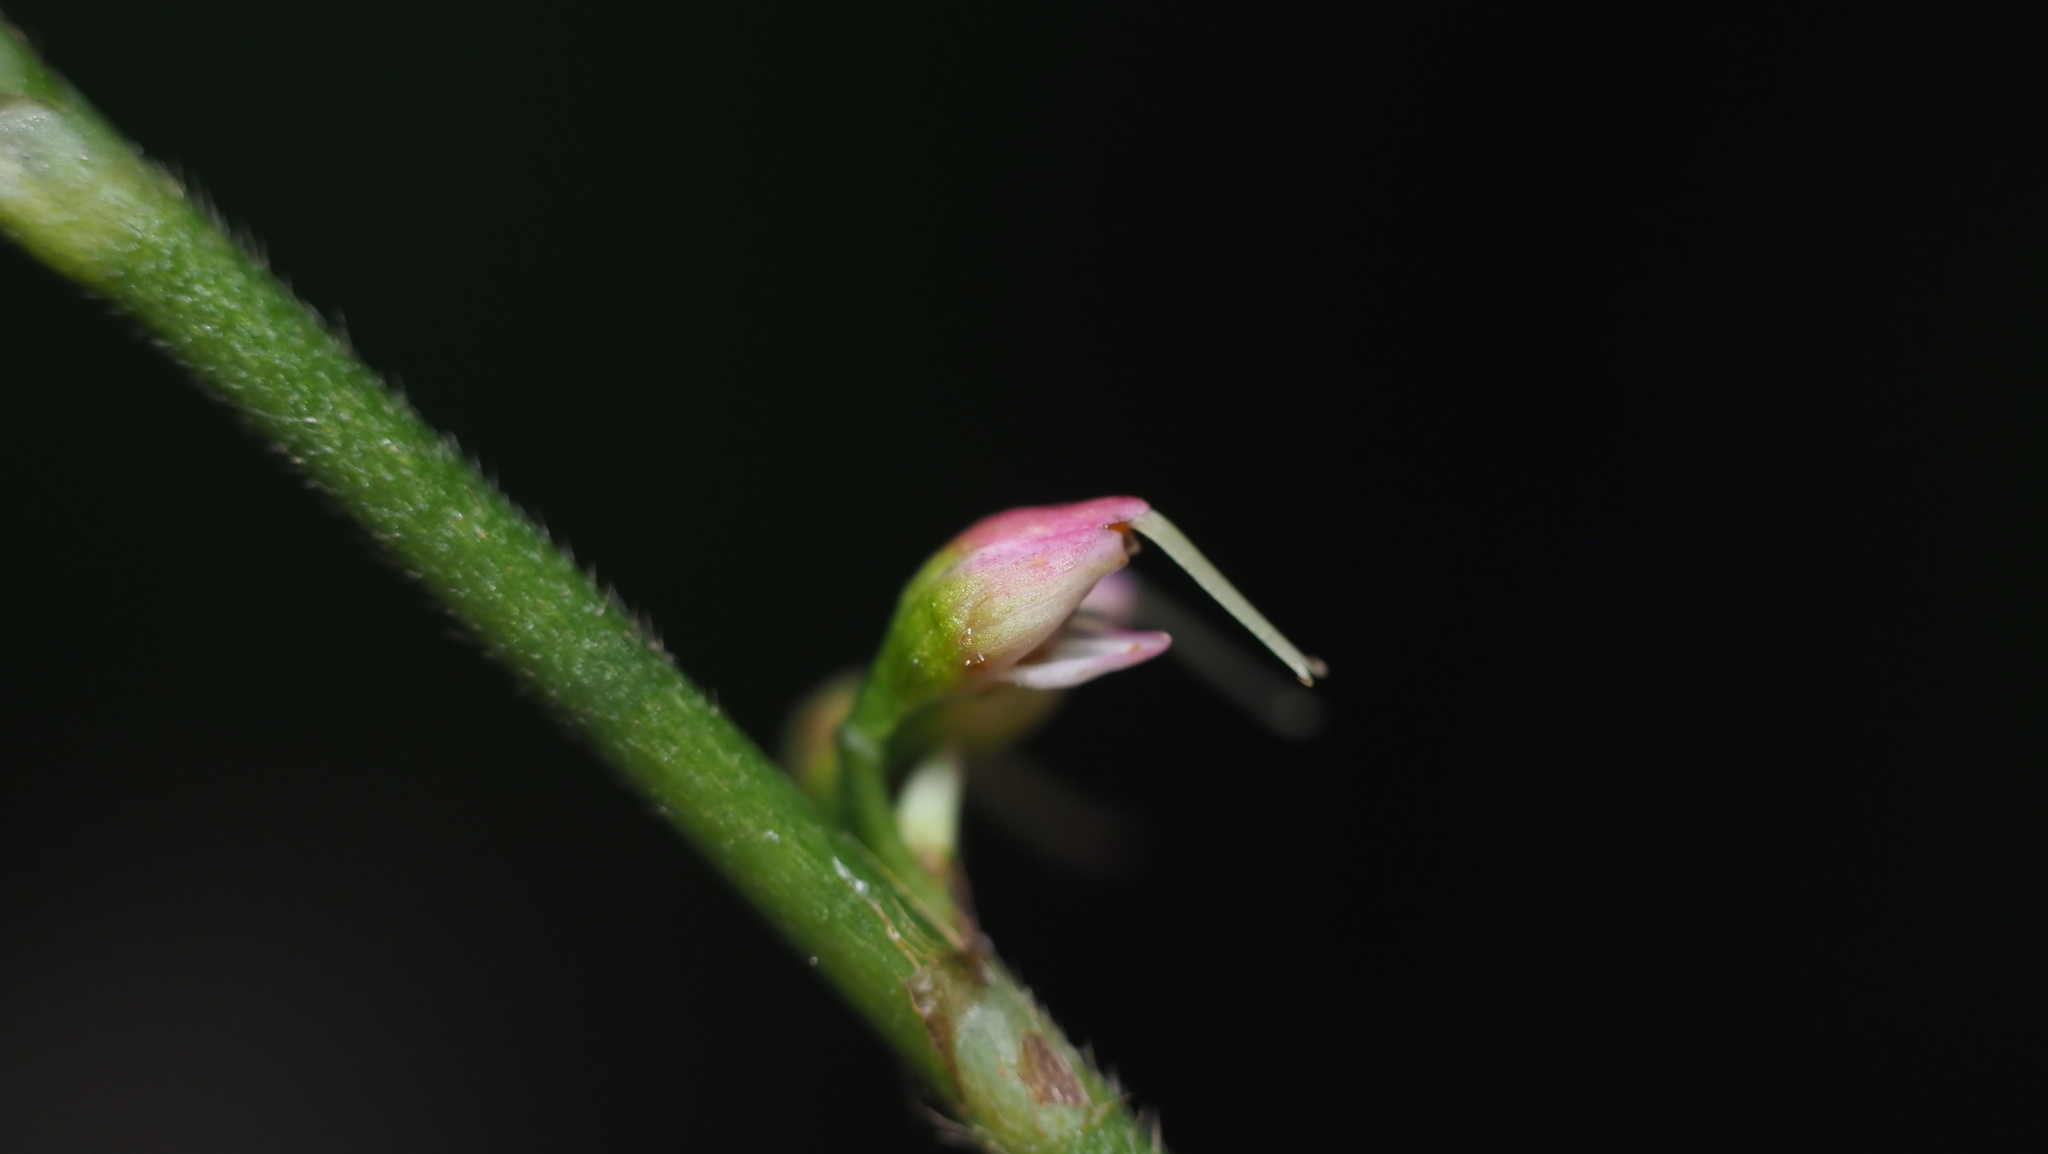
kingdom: Plantae
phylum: Tracheophyta
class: Magnoliopsida
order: Caryophyllales
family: Polygonaceae
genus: Persicaria
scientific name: Persicaria virginiana
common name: Jumpseed
